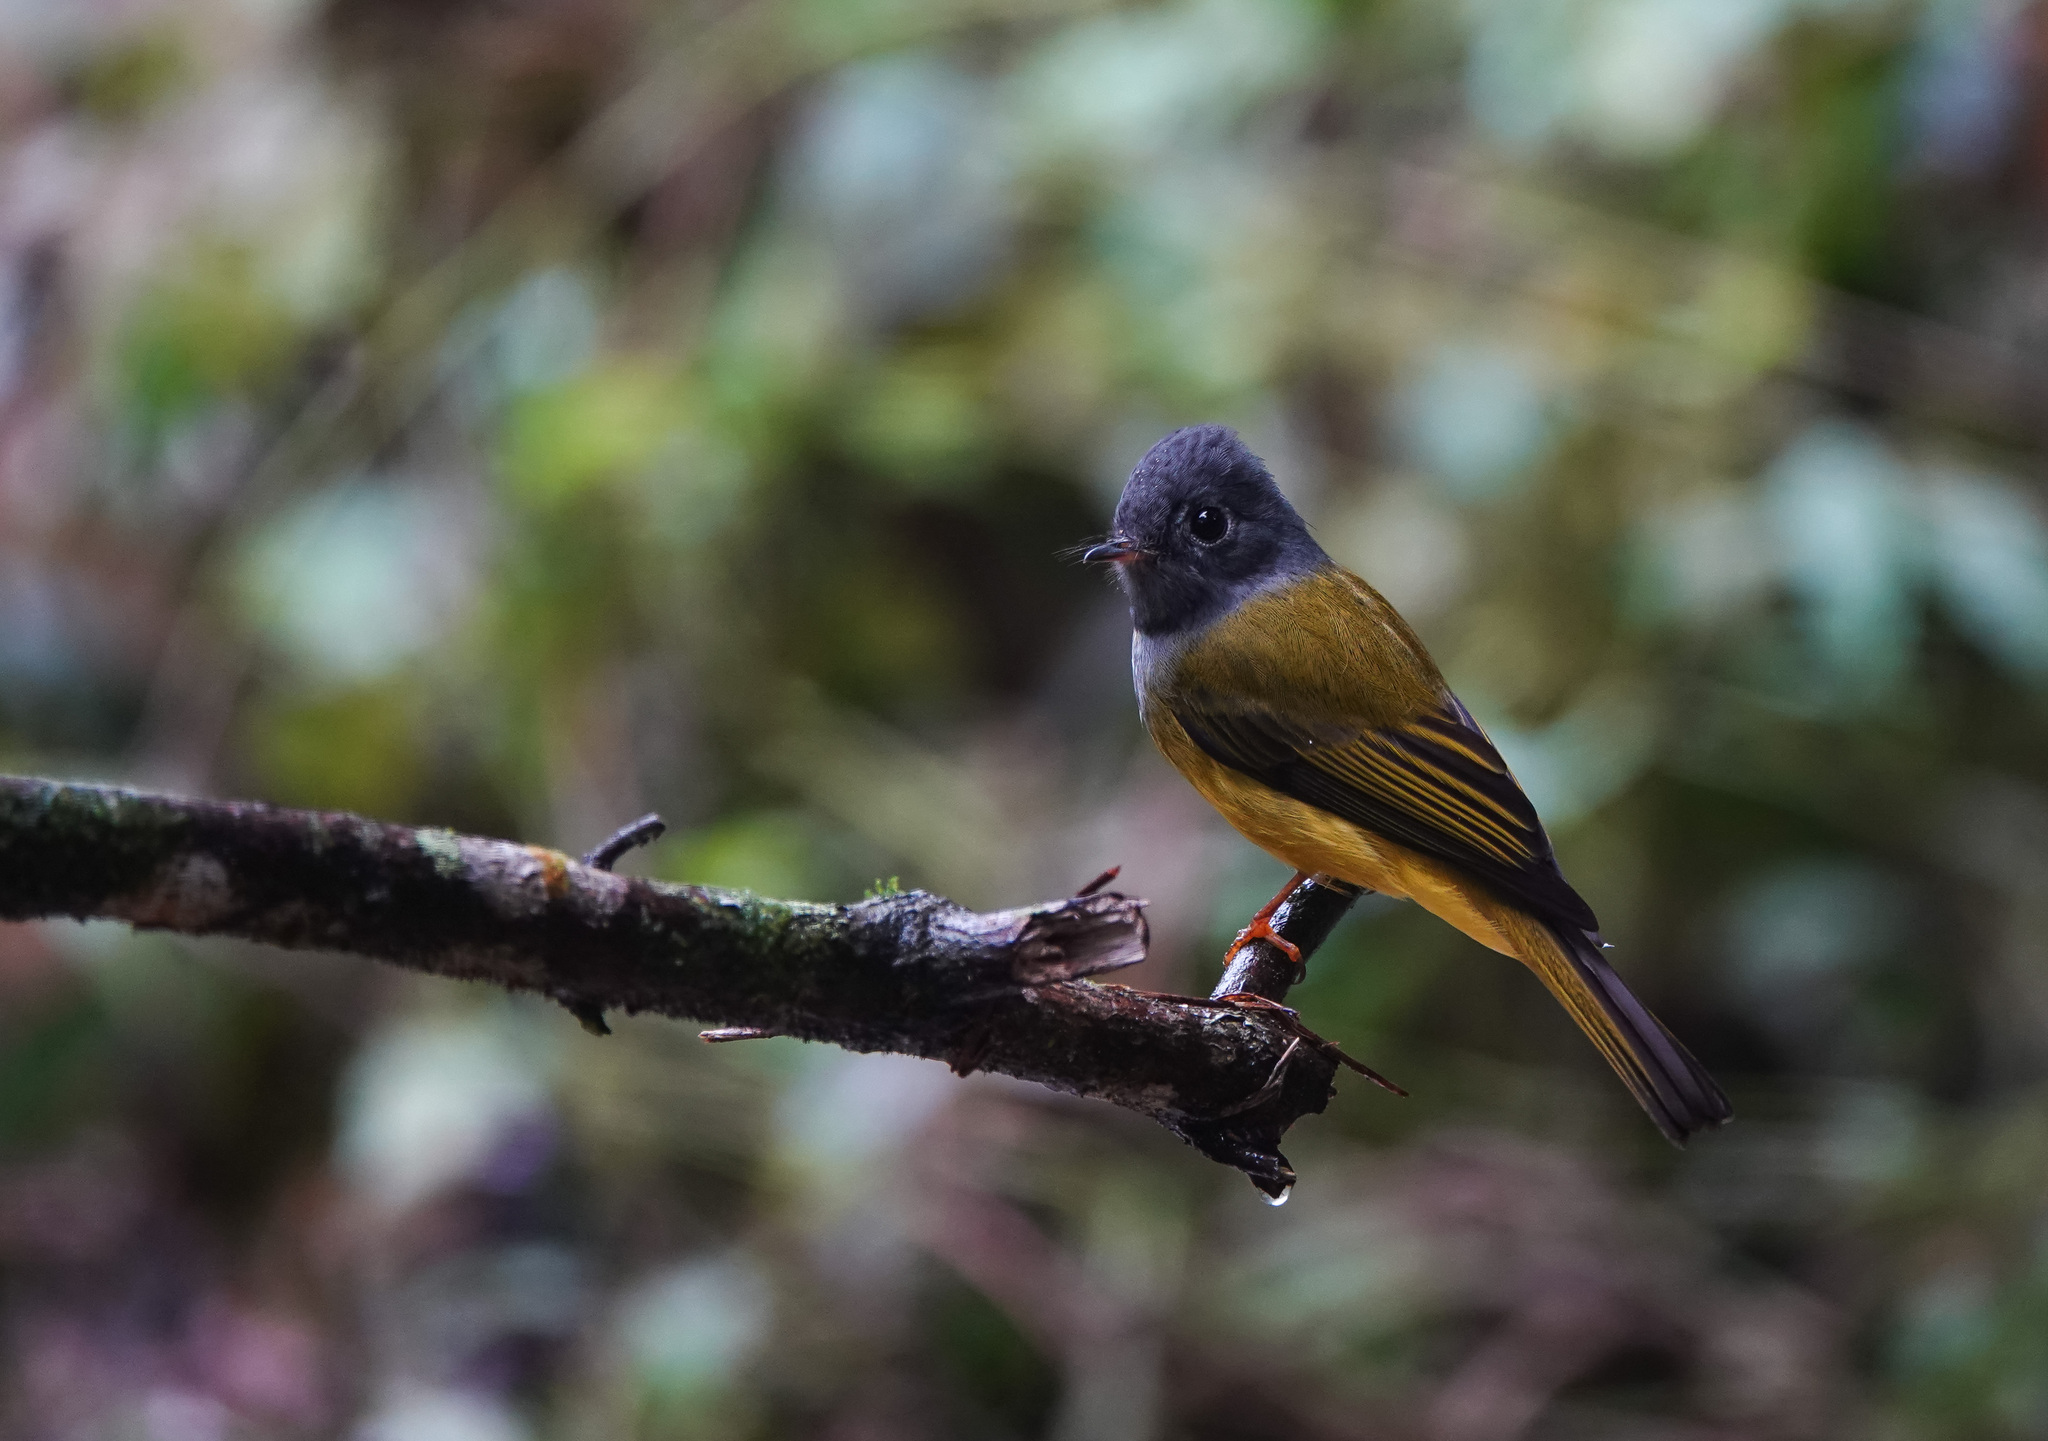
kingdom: Animalia
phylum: Chordata
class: Aves
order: Passeriformes
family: Stenostiridae
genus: Culicicapa
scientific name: Culicicapa ceylonensis
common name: Grey-headed canary-flycatcher
